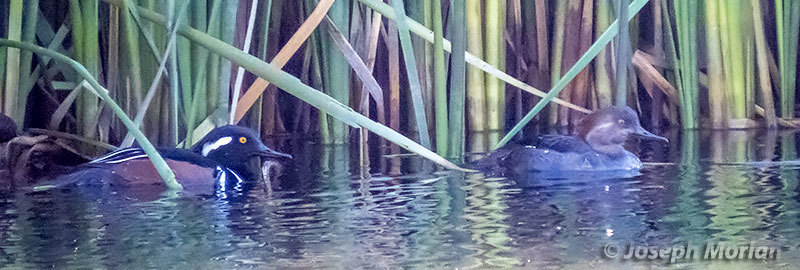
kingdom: Animalia
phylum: Chordata
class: Aves
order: Anseriformes
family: Anatidae
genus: Lophodytes
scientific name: Lophodytes cucullatus
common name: Hooded merganser
